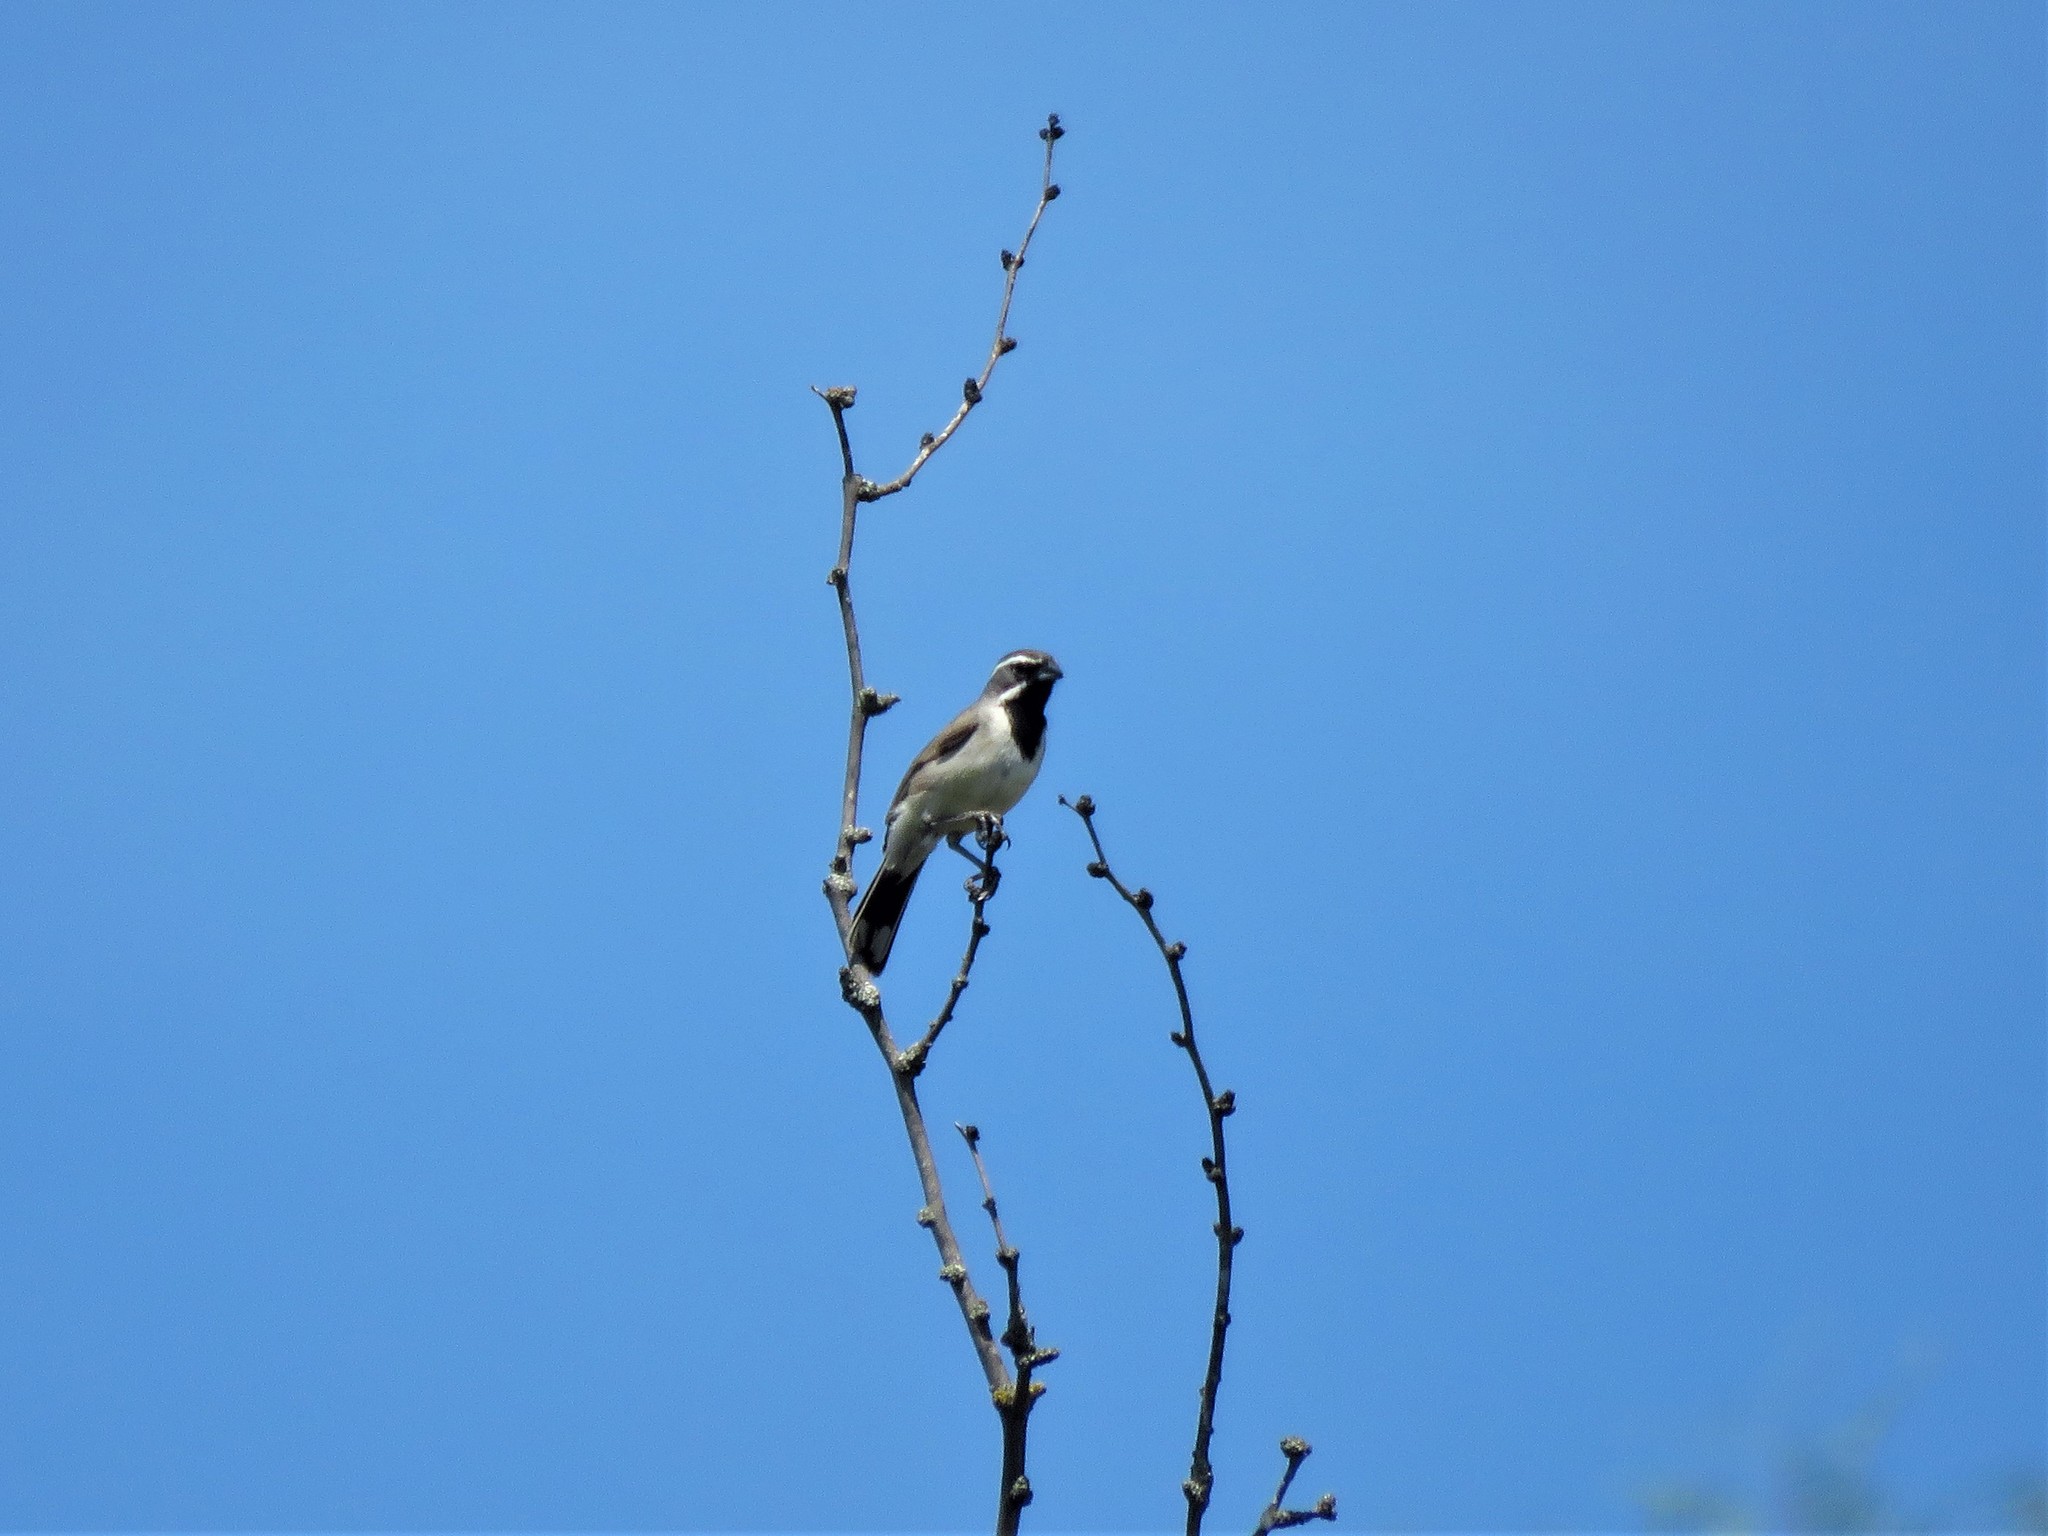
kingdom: Animalia
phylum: Chordata
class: Aves
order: Passeriformes
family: Passerellidae
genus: Amphispiza
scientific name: Amphispiza bilineata
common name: Black-throated sparrow
